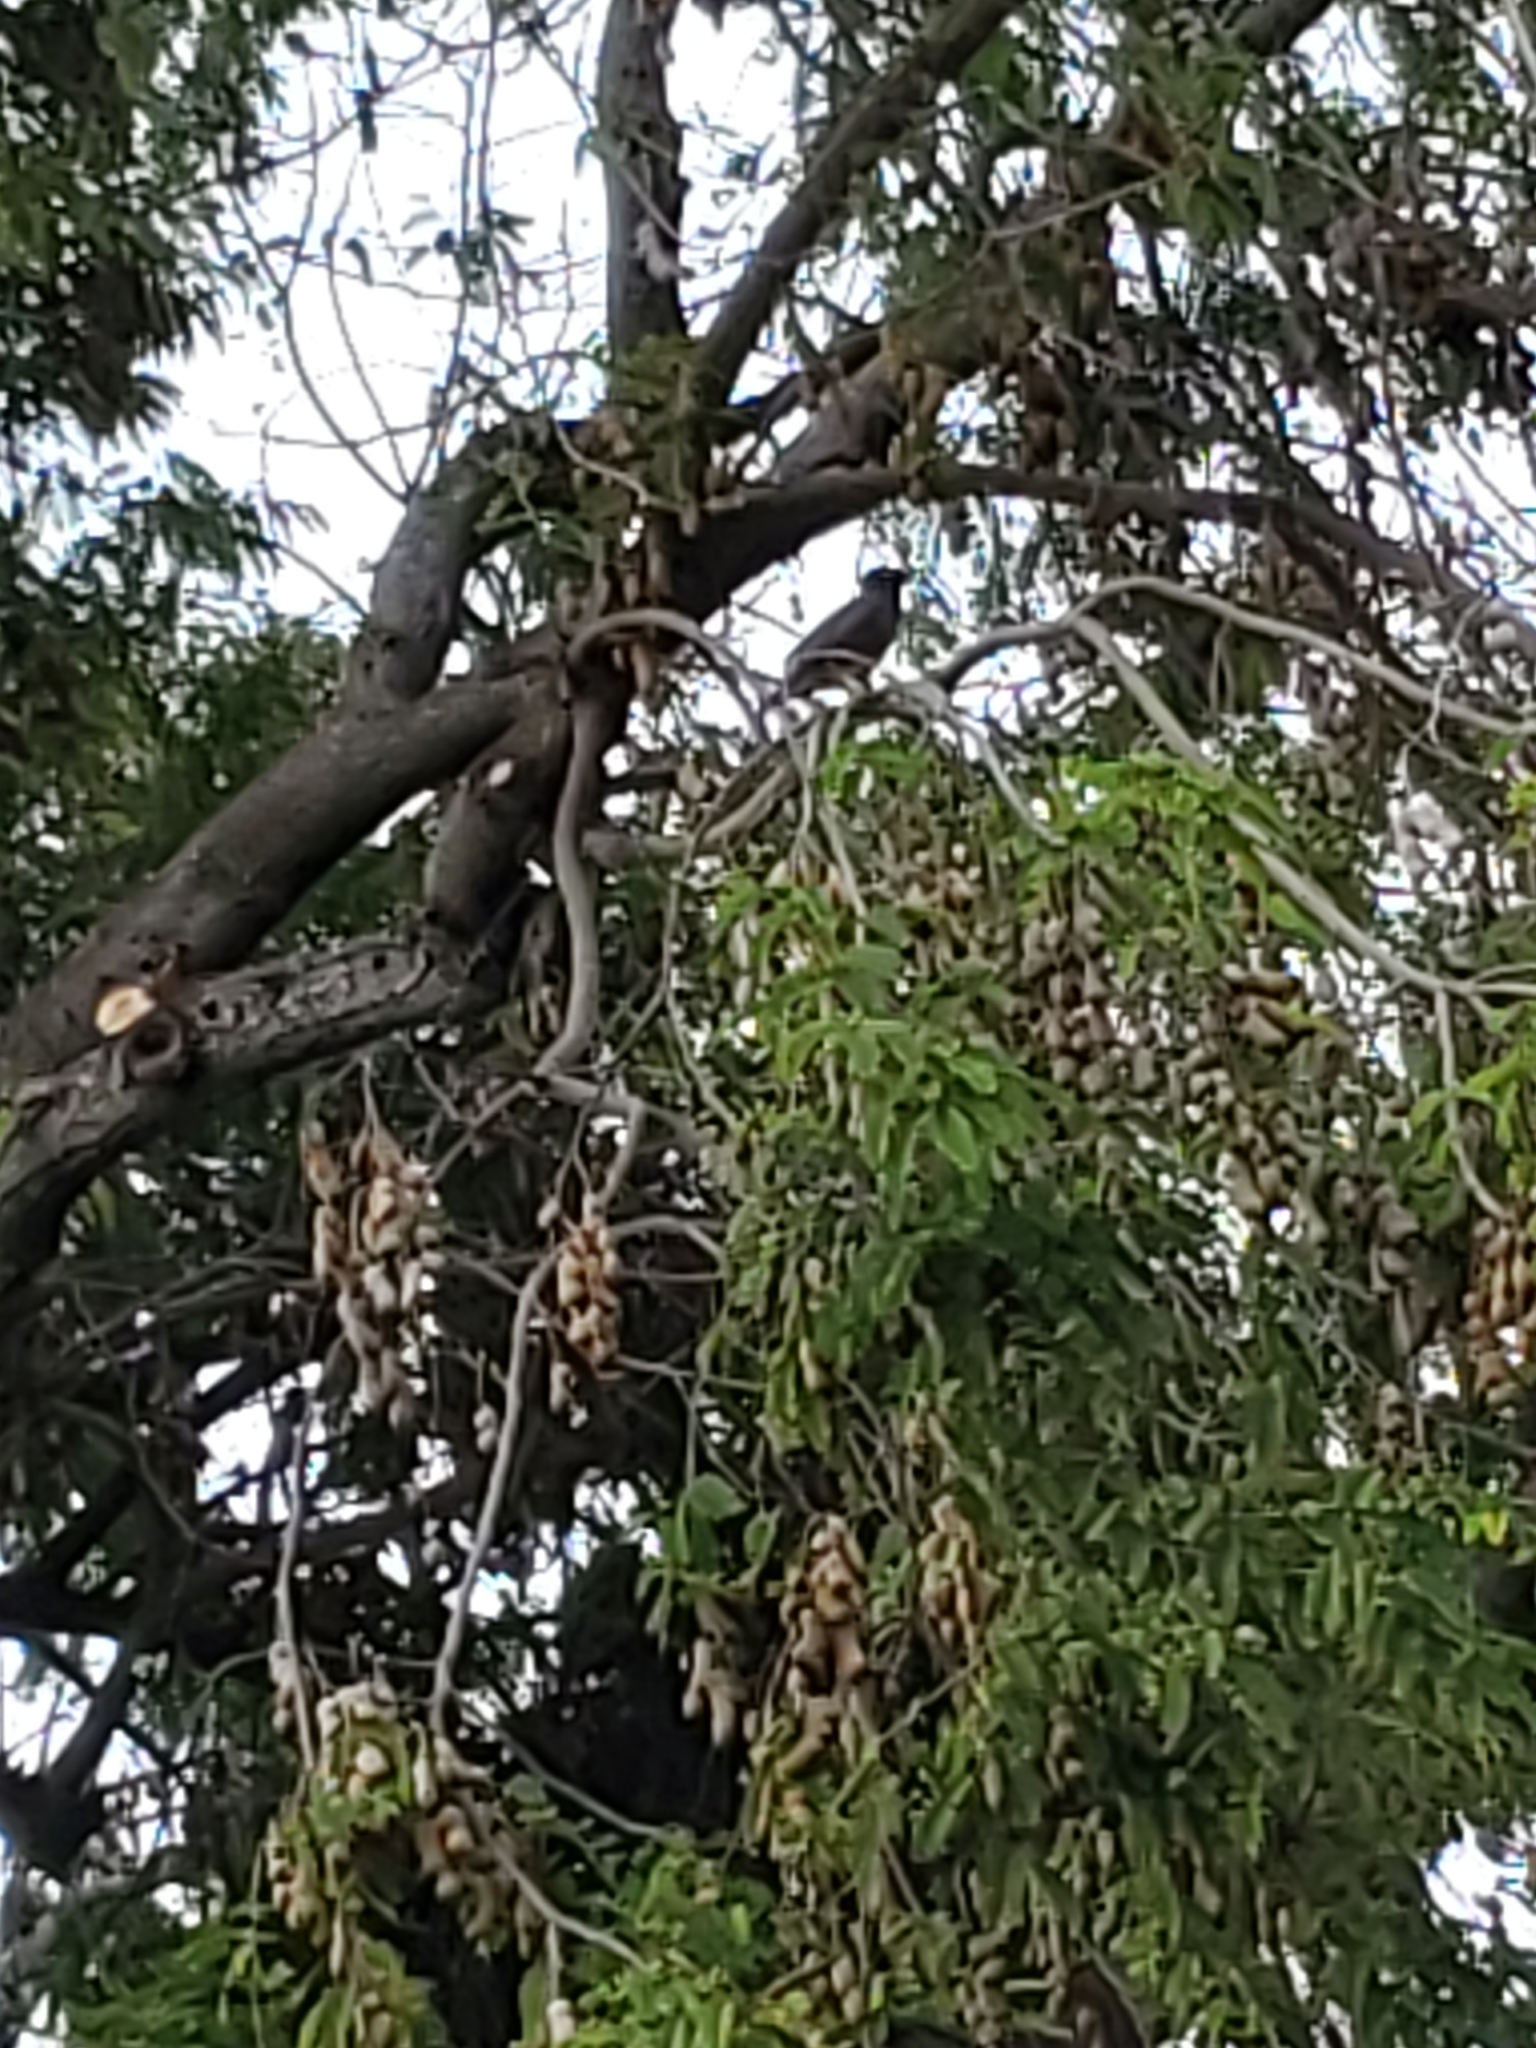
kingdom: Animalia
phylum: Chordata
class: Aves
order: Passeriformes
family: Sturnidae
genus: Acridotheres
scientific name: Acridotheres tristis
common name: Common myna
